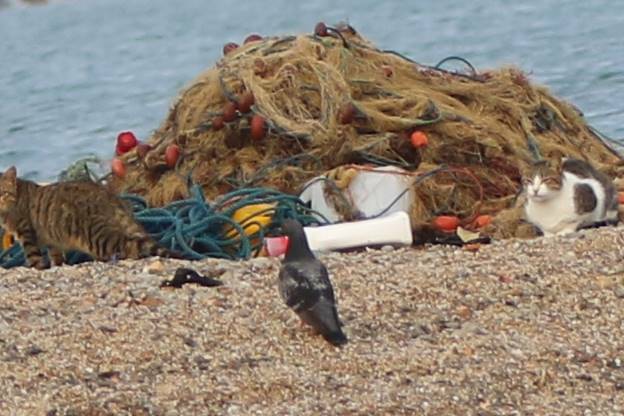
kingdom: Animalia
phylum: Chordata
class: Aves
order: Columbiformes
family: Columbidae
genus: Columba
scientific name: Columba livia
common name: Rock pigeon
